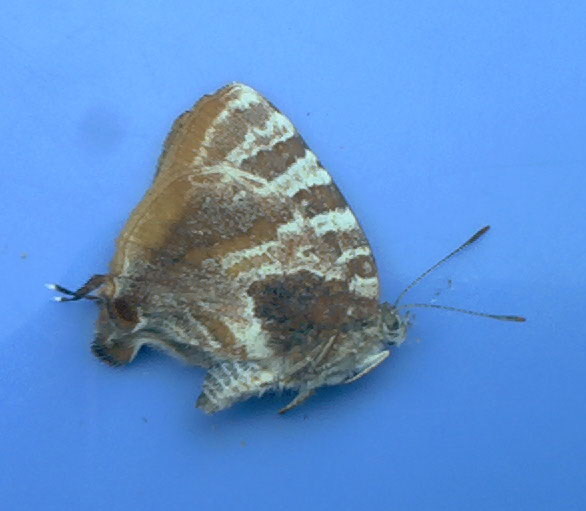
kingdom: Animalia
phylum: Arthropoda
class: Insecta
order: Lepidoptera
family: Lycaenidae
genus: Arawacus
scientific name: Arawacus ellida
